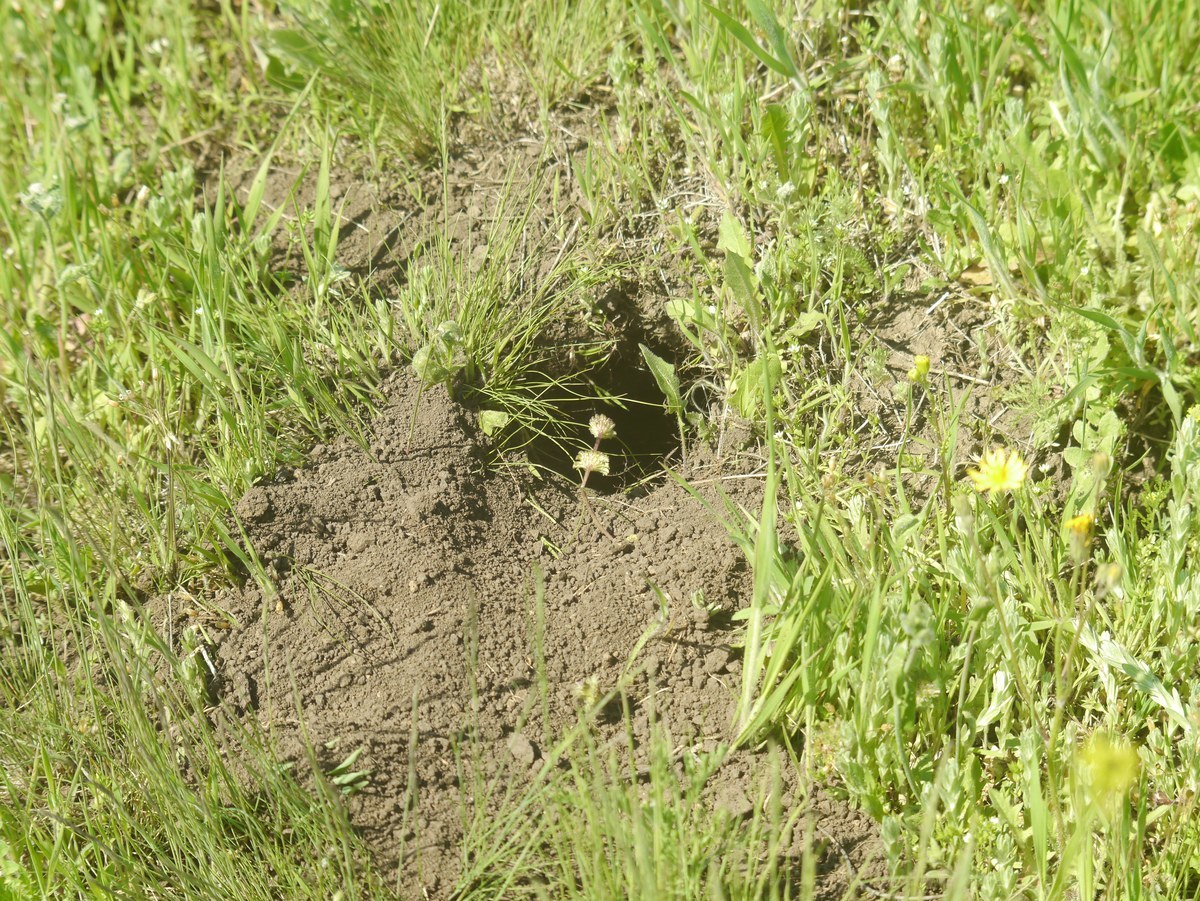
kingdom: Animalia
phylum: Chordata
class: Mammalia
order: Rodentia
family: Sciuridae
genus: Spermophilus
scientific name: Spermophilus suslicus
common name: Speckled ground squirrel
